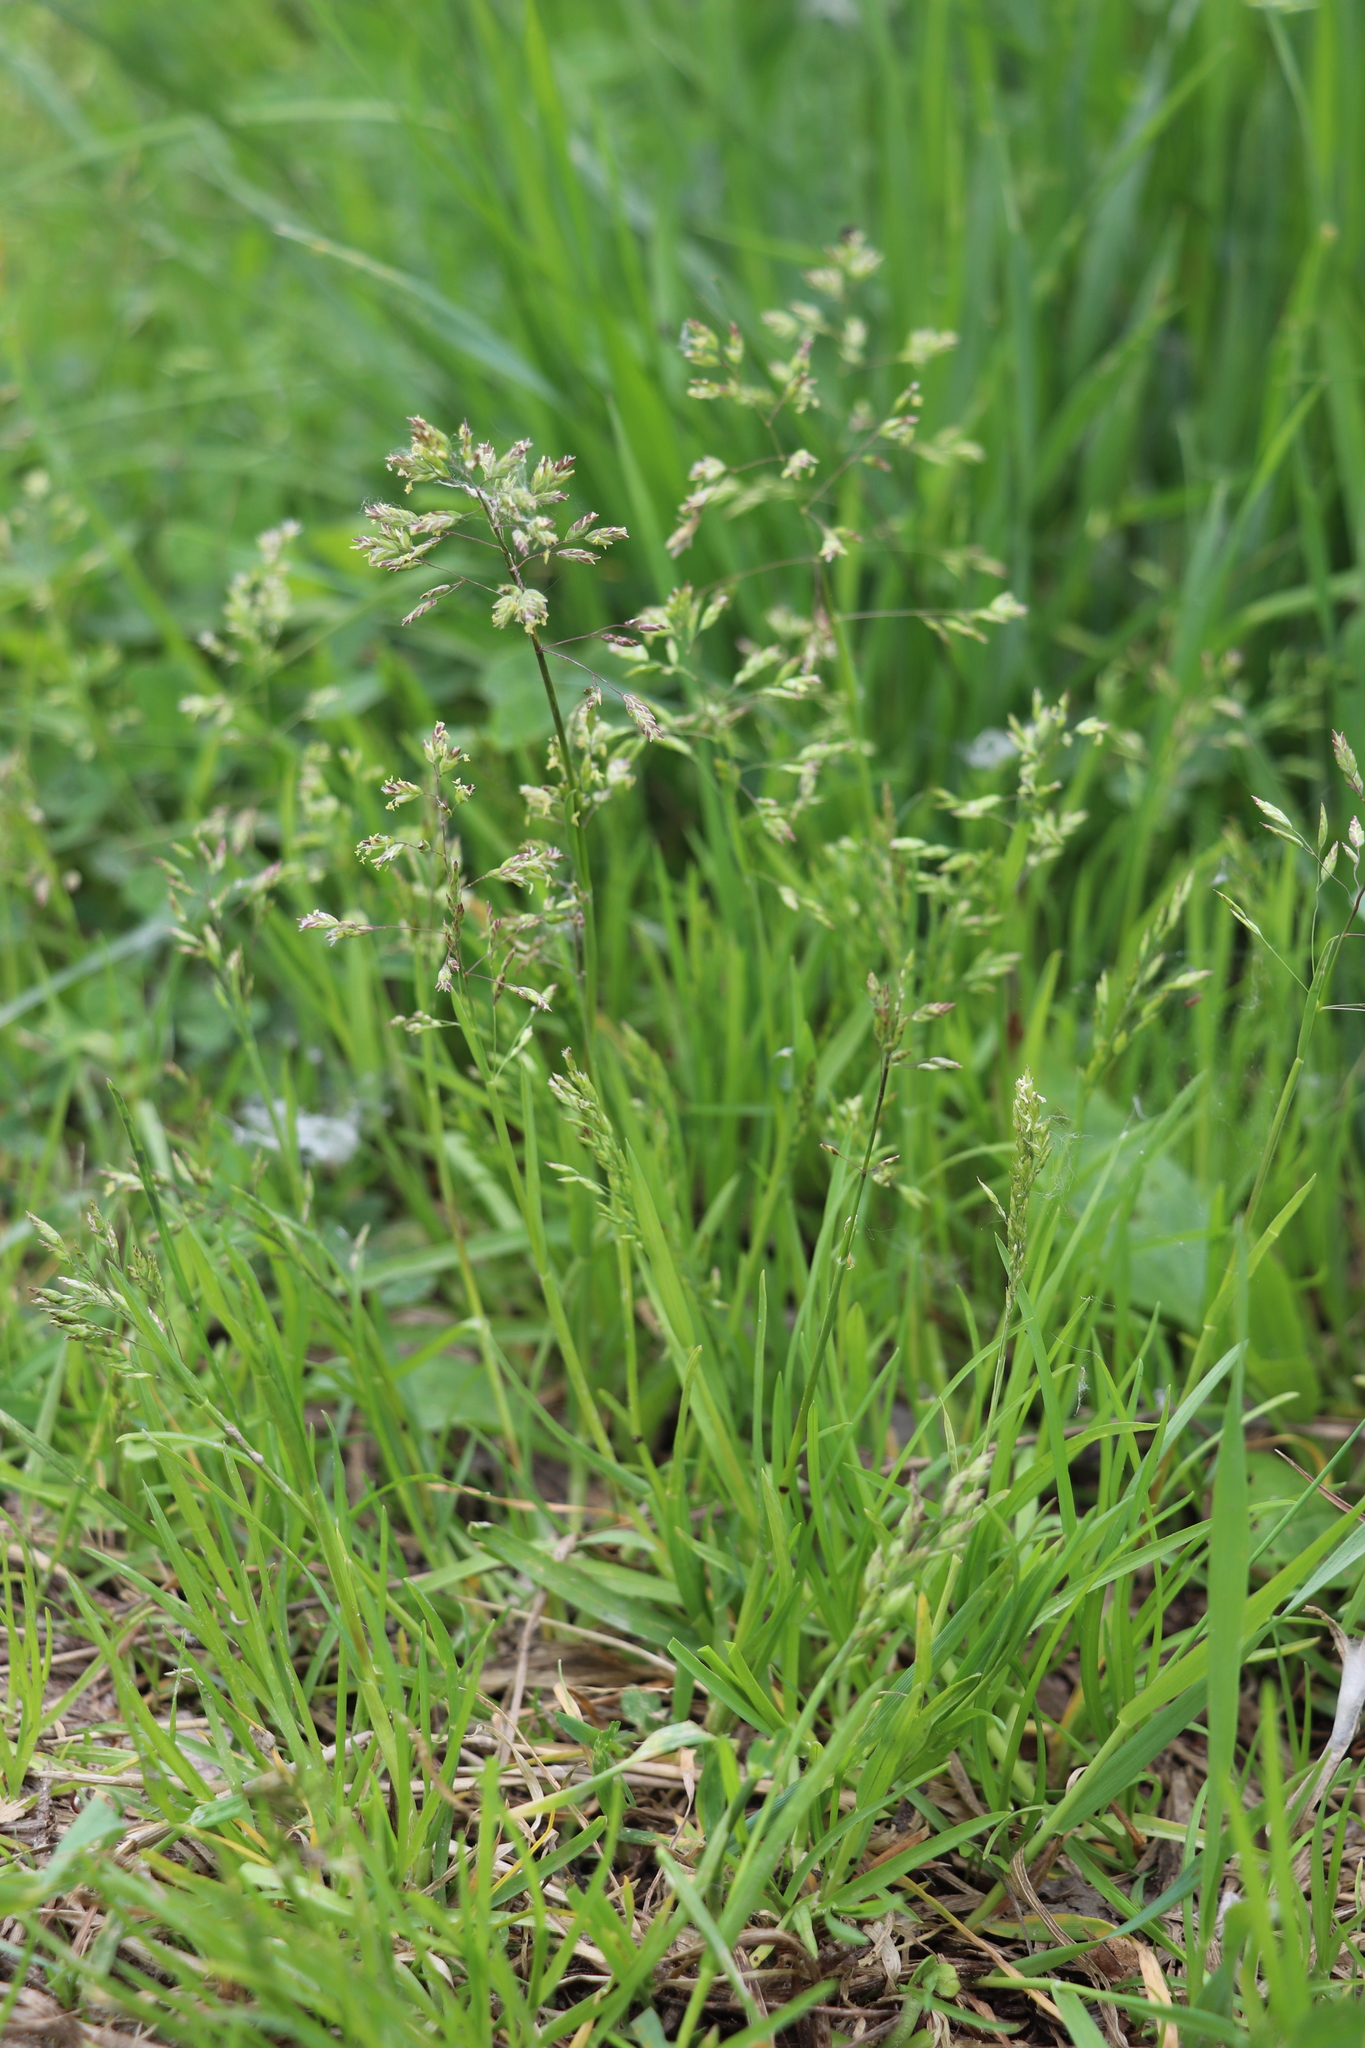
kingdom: Plantae
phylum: Tracheophyta
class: Liliopsida
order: Poales
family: Poaceae
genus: Poa
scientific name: Poa annua
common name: Annual bluegrass
